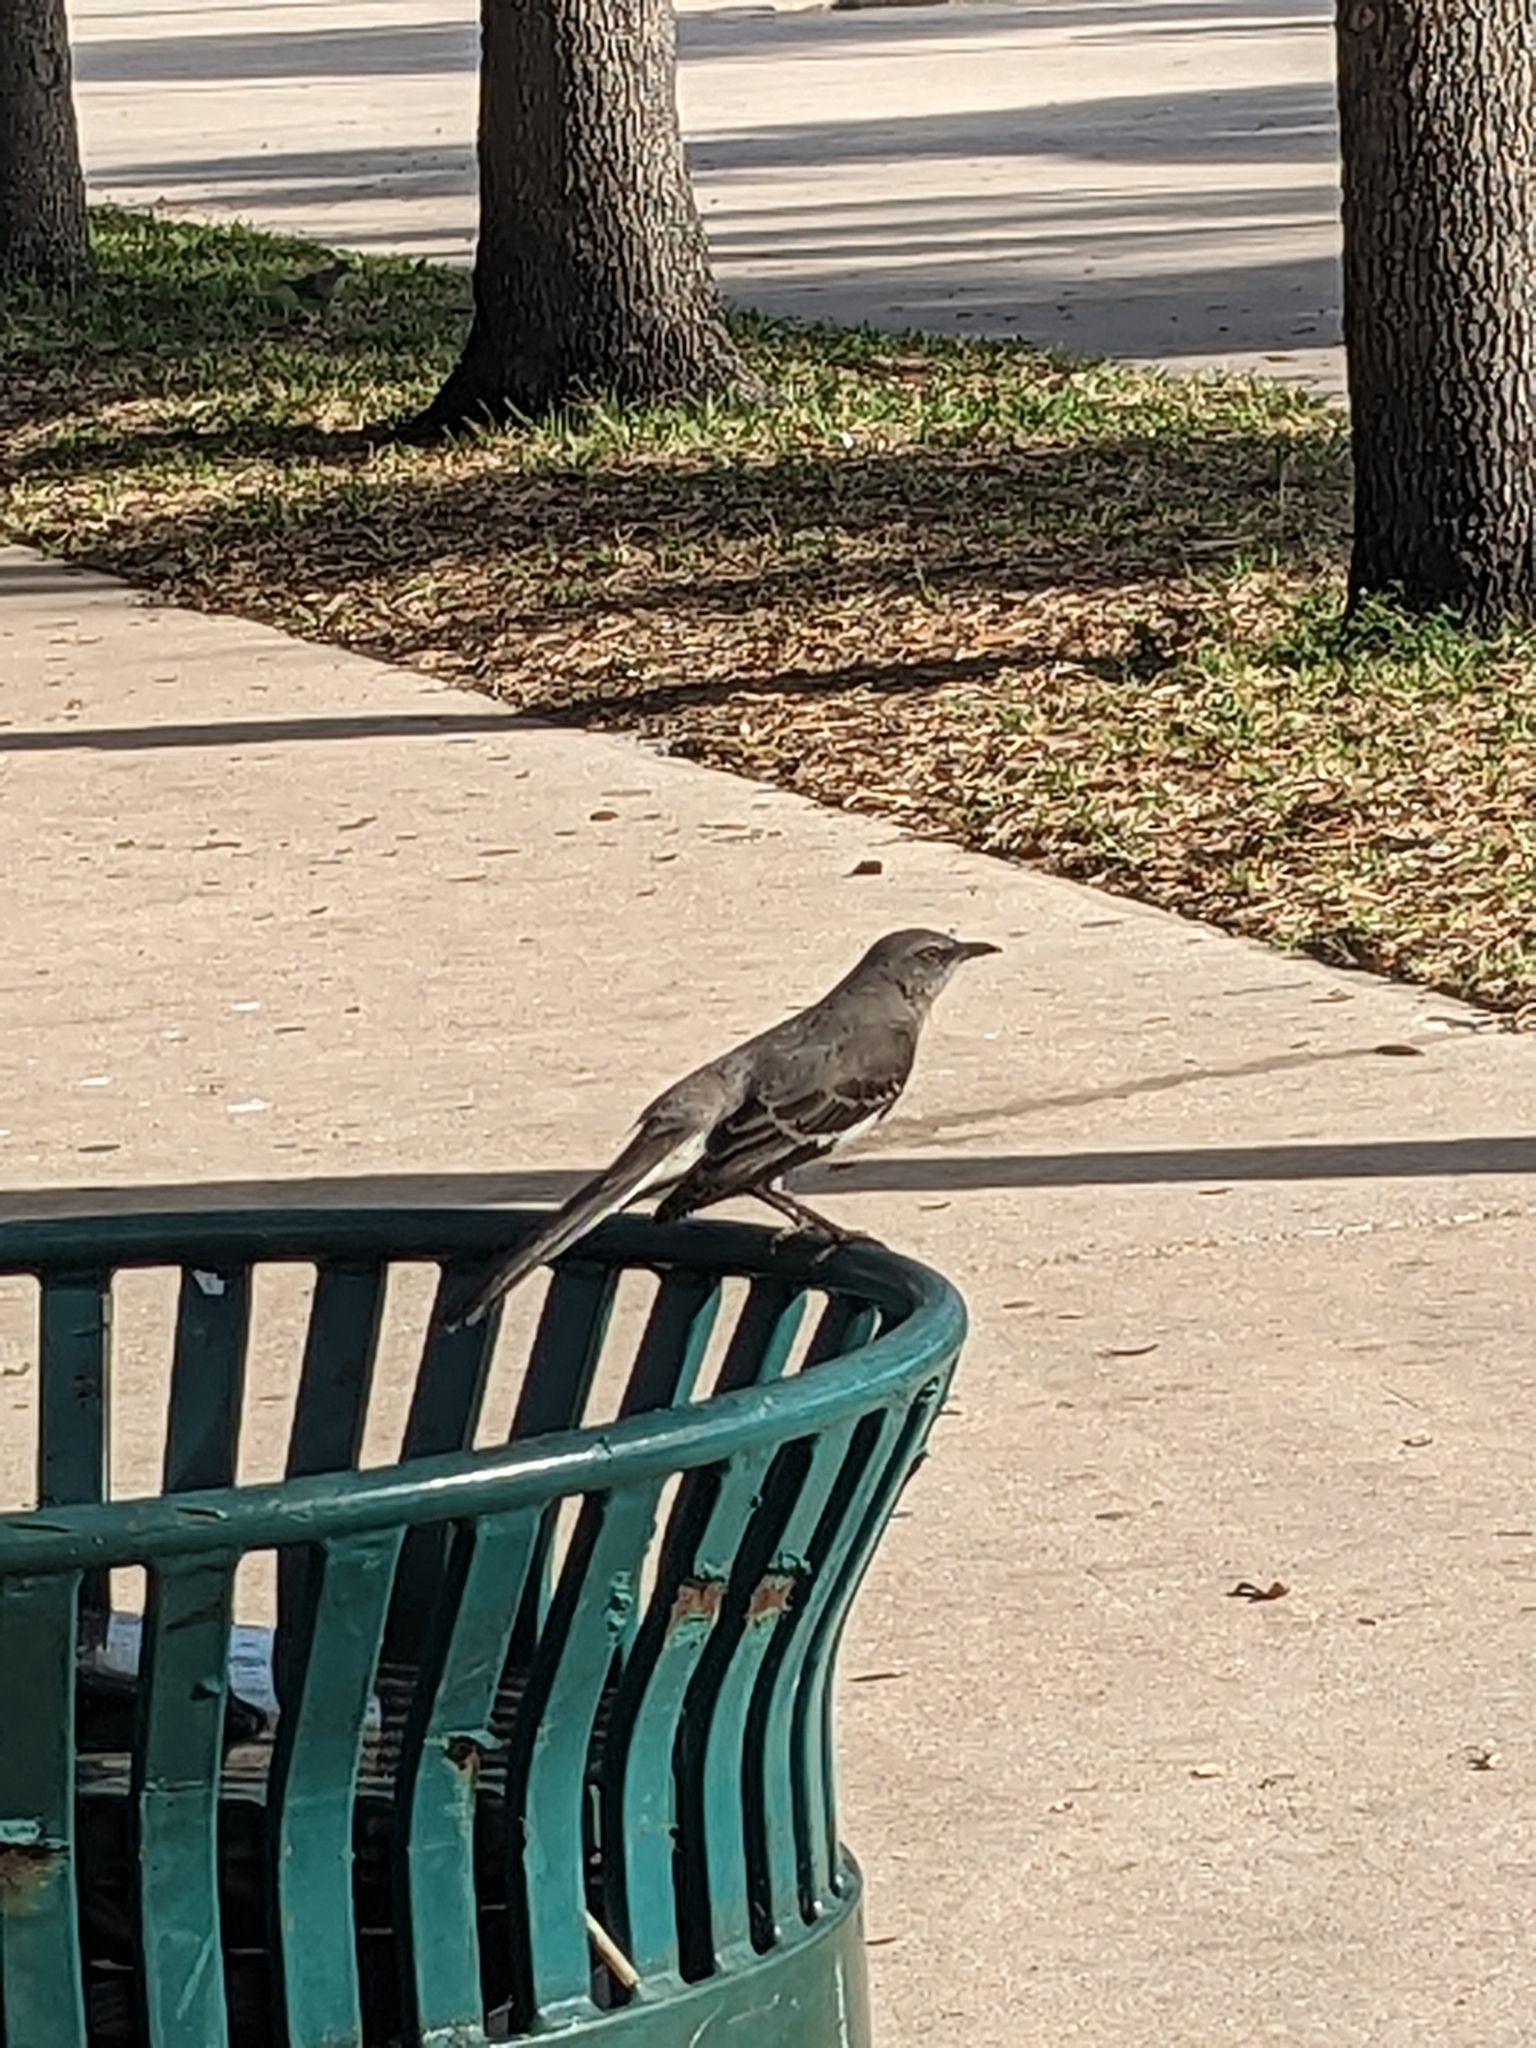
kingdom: Animalia
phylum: Chordata
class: Aves
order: Passeriformes
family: Mimidae
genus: Mimus
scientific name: Mimus polyglottos
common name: Northern mockingbird
